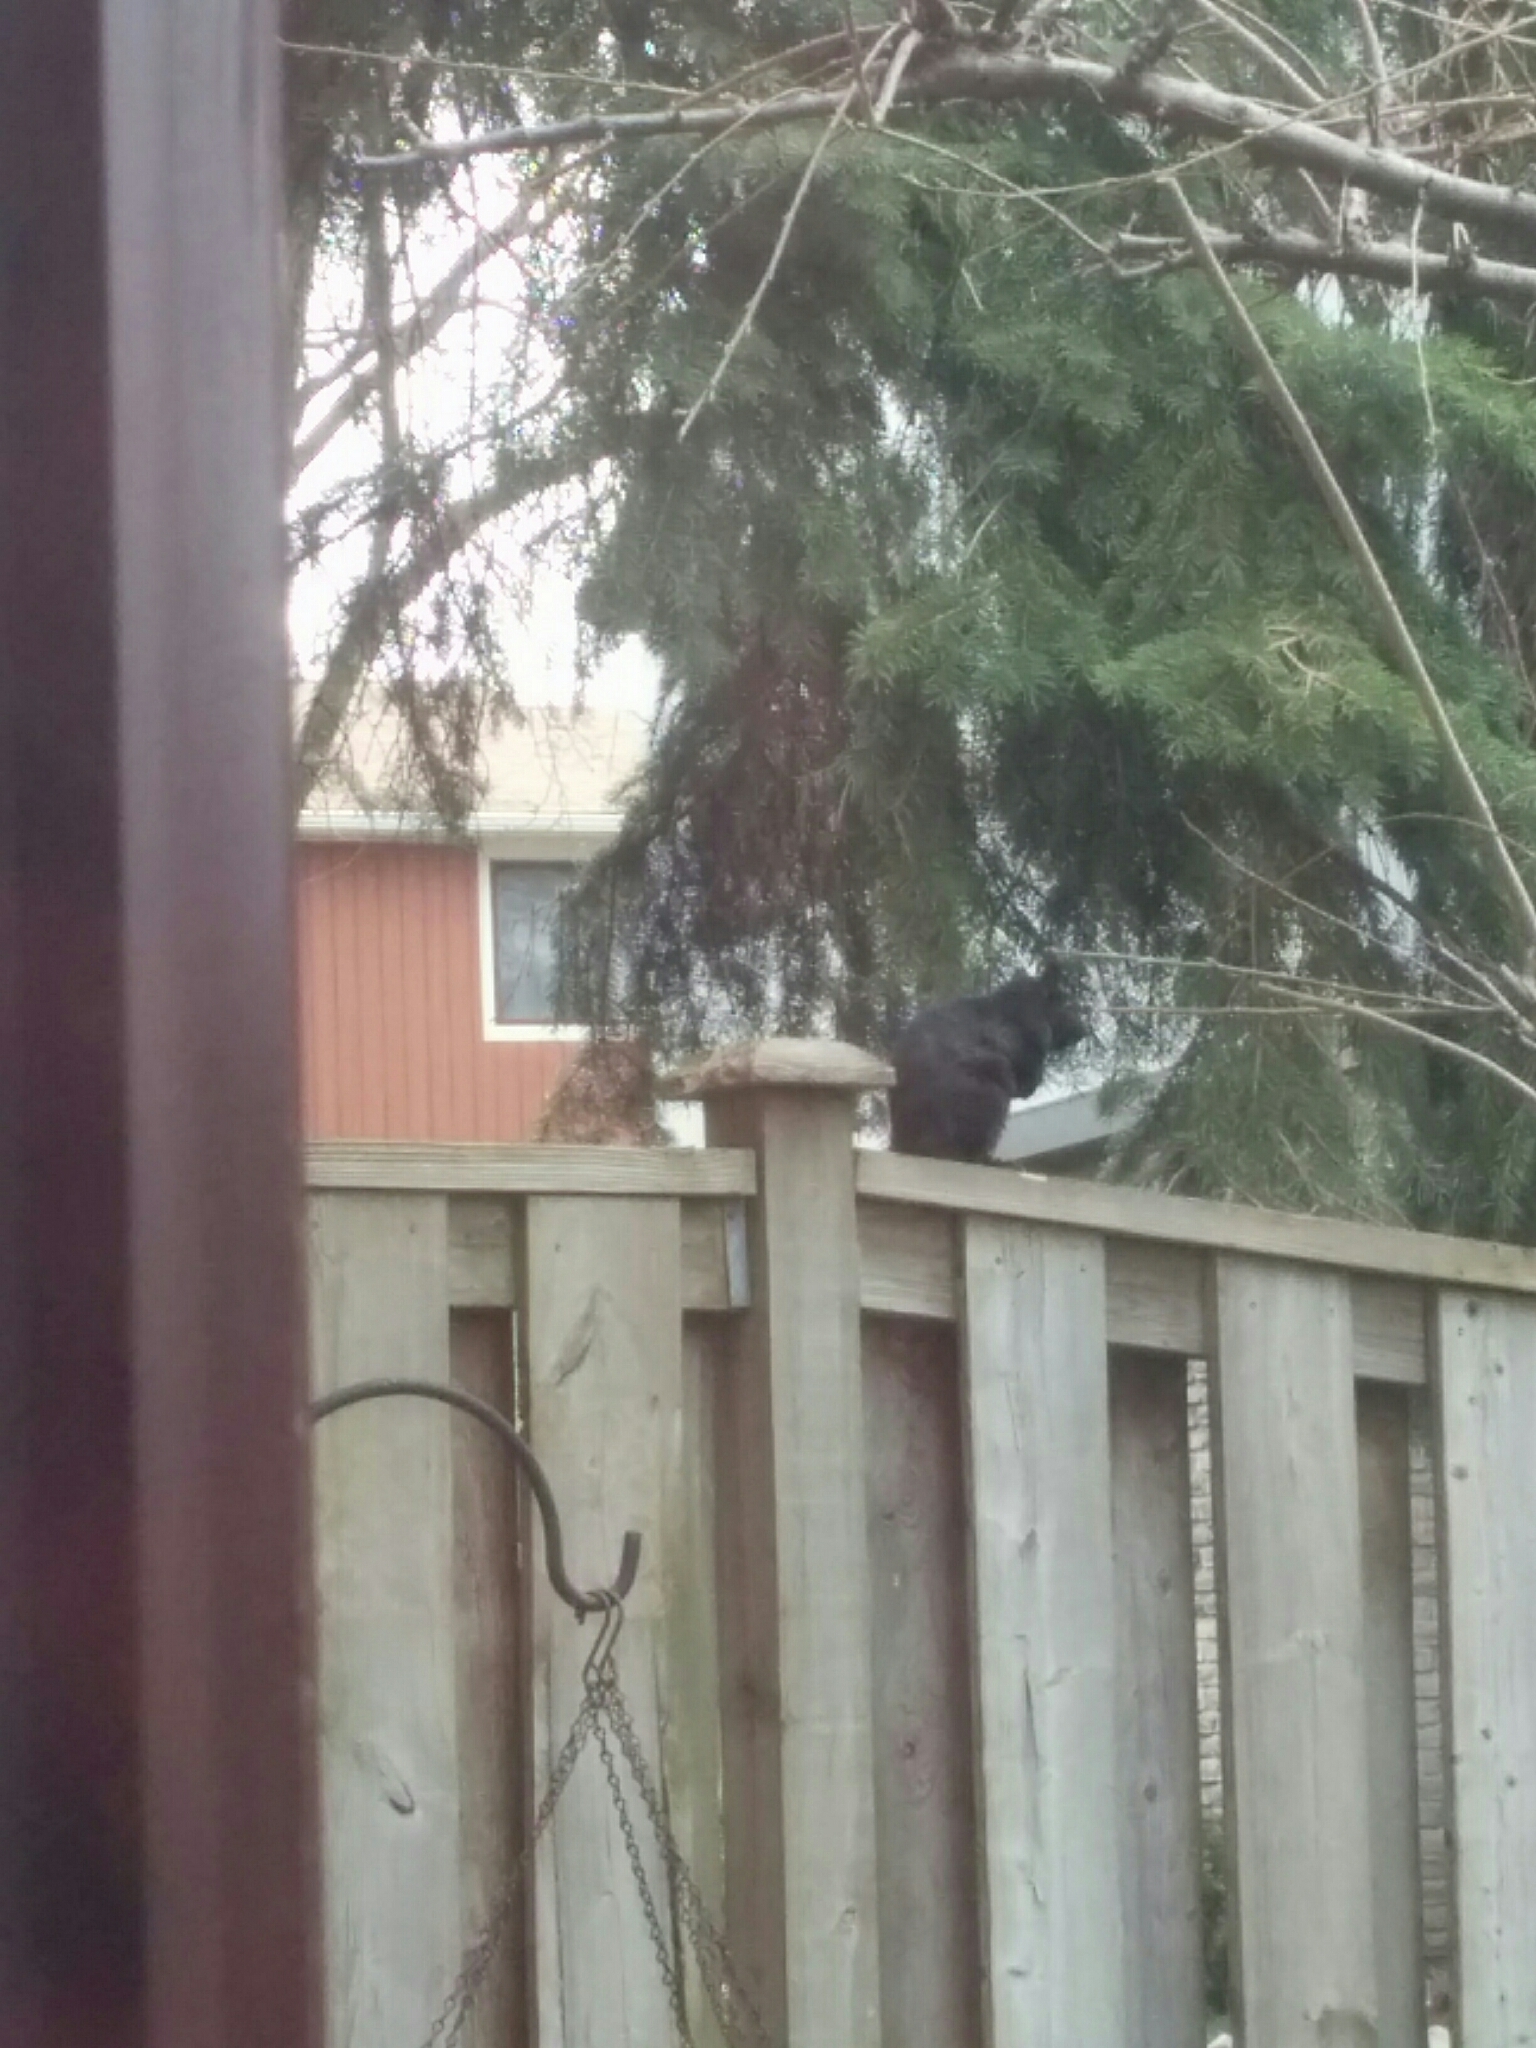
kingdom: Animalia
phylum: Chordata
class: Mammalia
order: Rodentia
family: Sciuridae
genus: Sciurus
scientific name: Sciurus carolinensis
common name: Eastern gray squirrel
